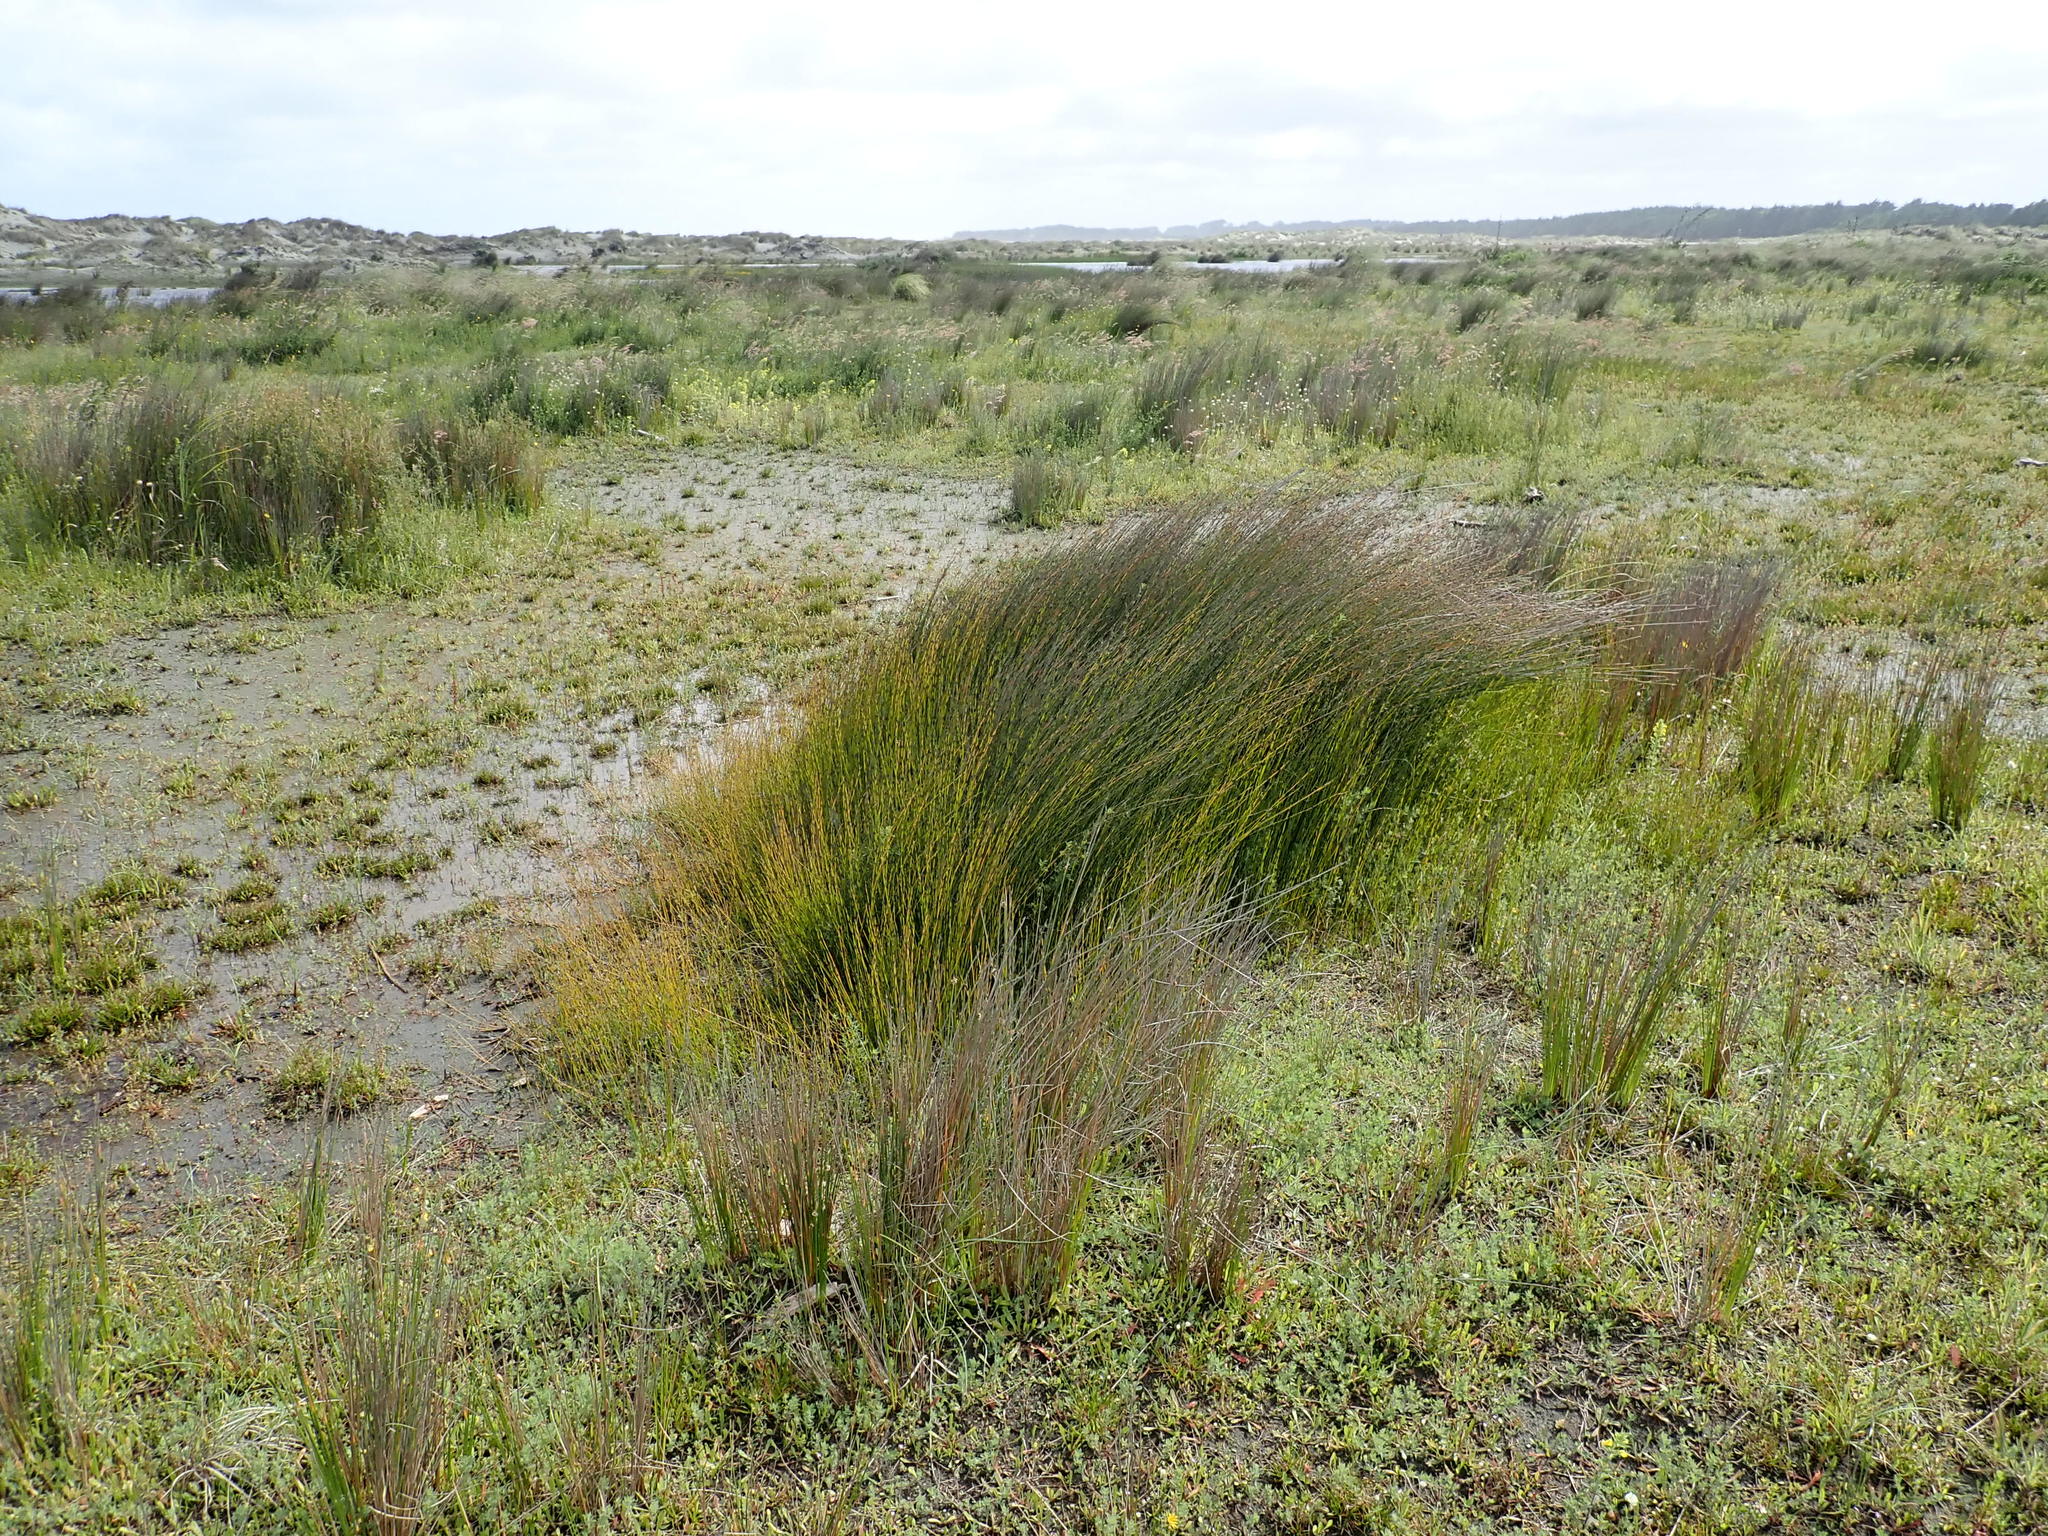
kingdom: Plantae
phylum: Tracheophyta
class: Liliopsida
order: Poales
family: Restionaceae
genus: Apodasmia
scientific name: Apodasmia similis
